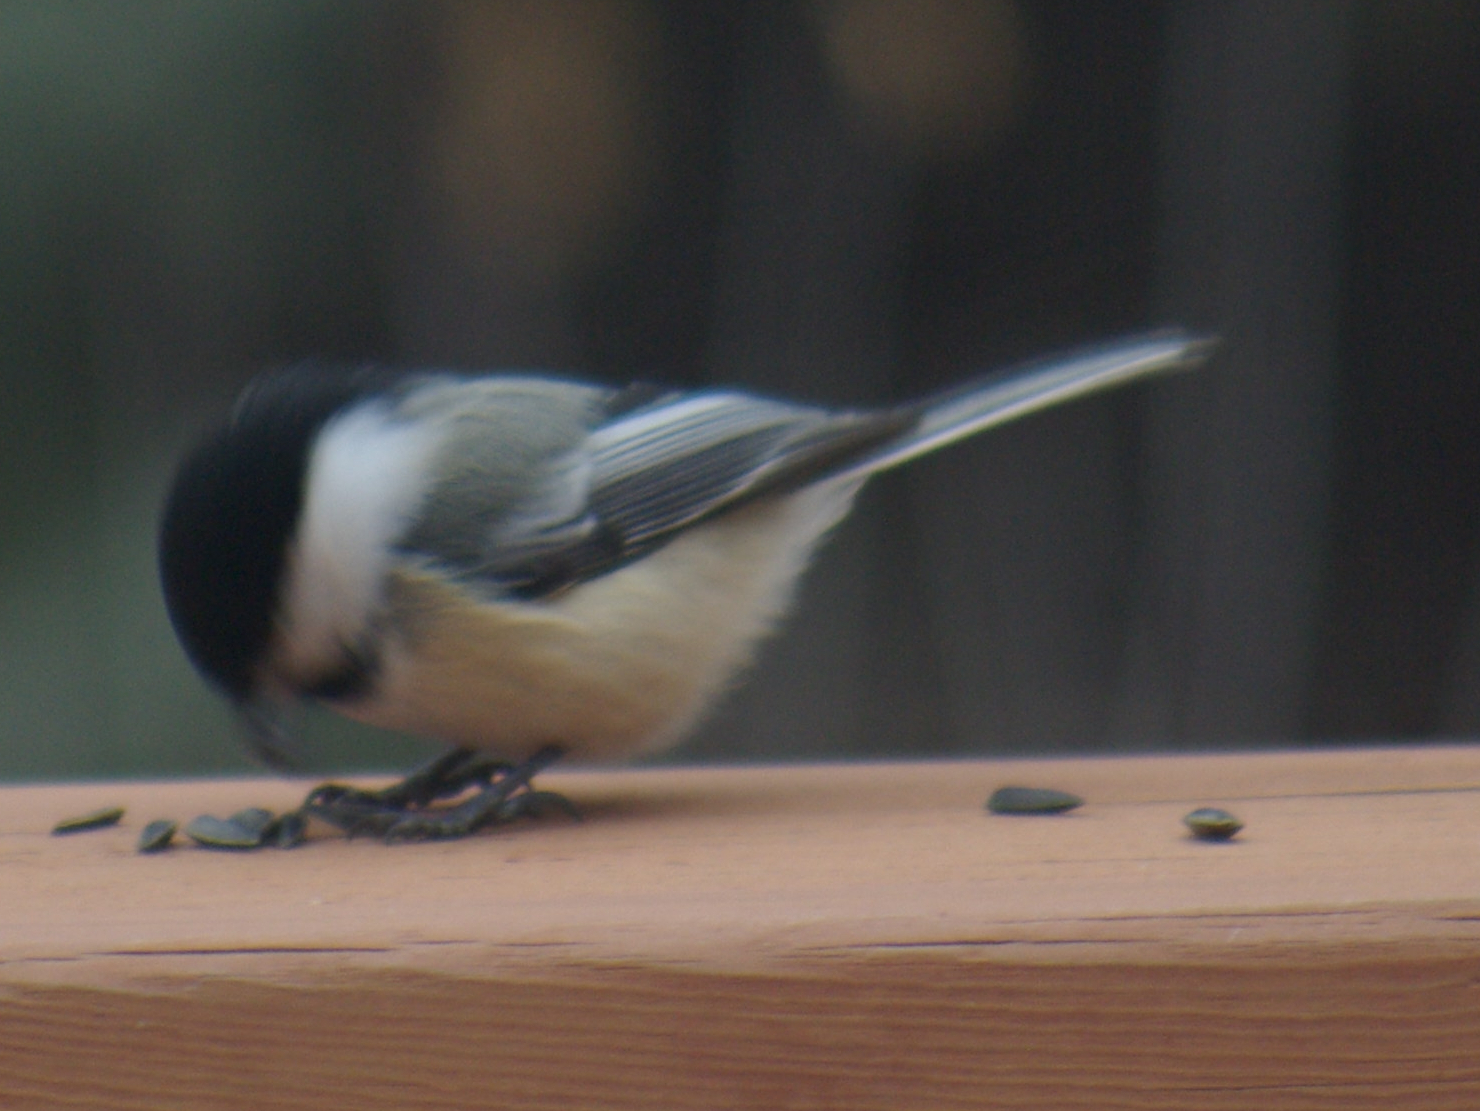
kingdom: Animalia
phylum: Chordata
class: Aves
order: Passeriformes
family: Paridae
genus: Poecile
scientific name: Poecile atricapillus
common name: Black-capped chickadee
